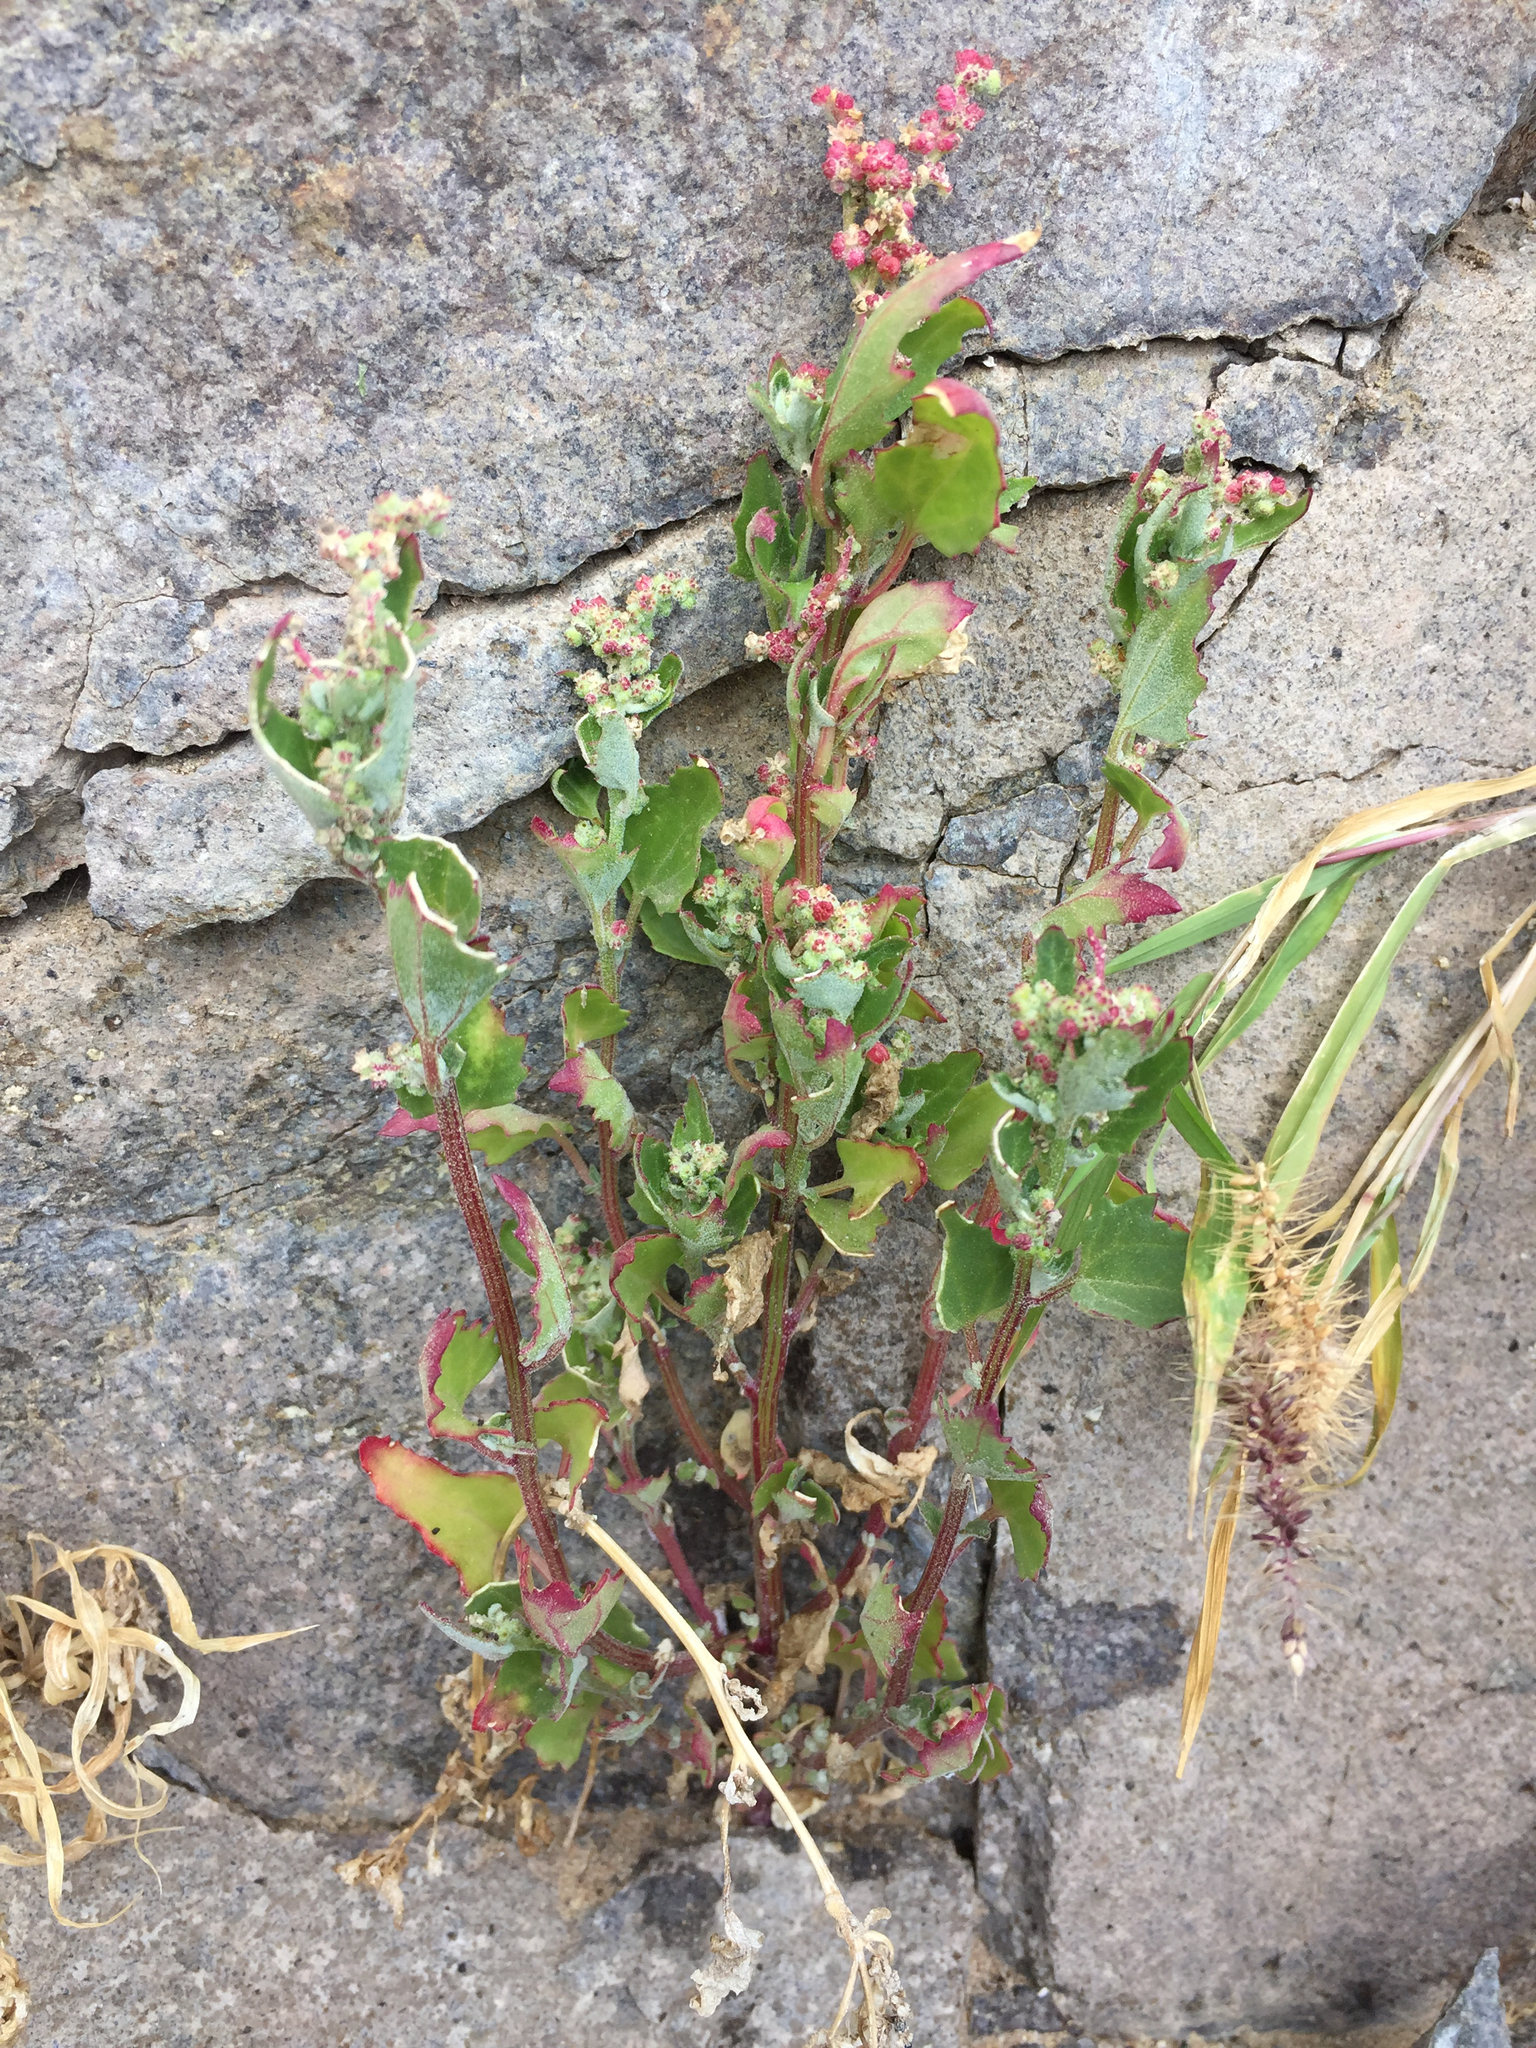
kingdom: Plantae
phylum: Tracheophyta
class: Magnoliopsida
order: Caryophyllales
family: Amaranthaceae
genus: Chenopodiastrum
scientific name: Chenopodiastrum murale
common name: Sowbane
